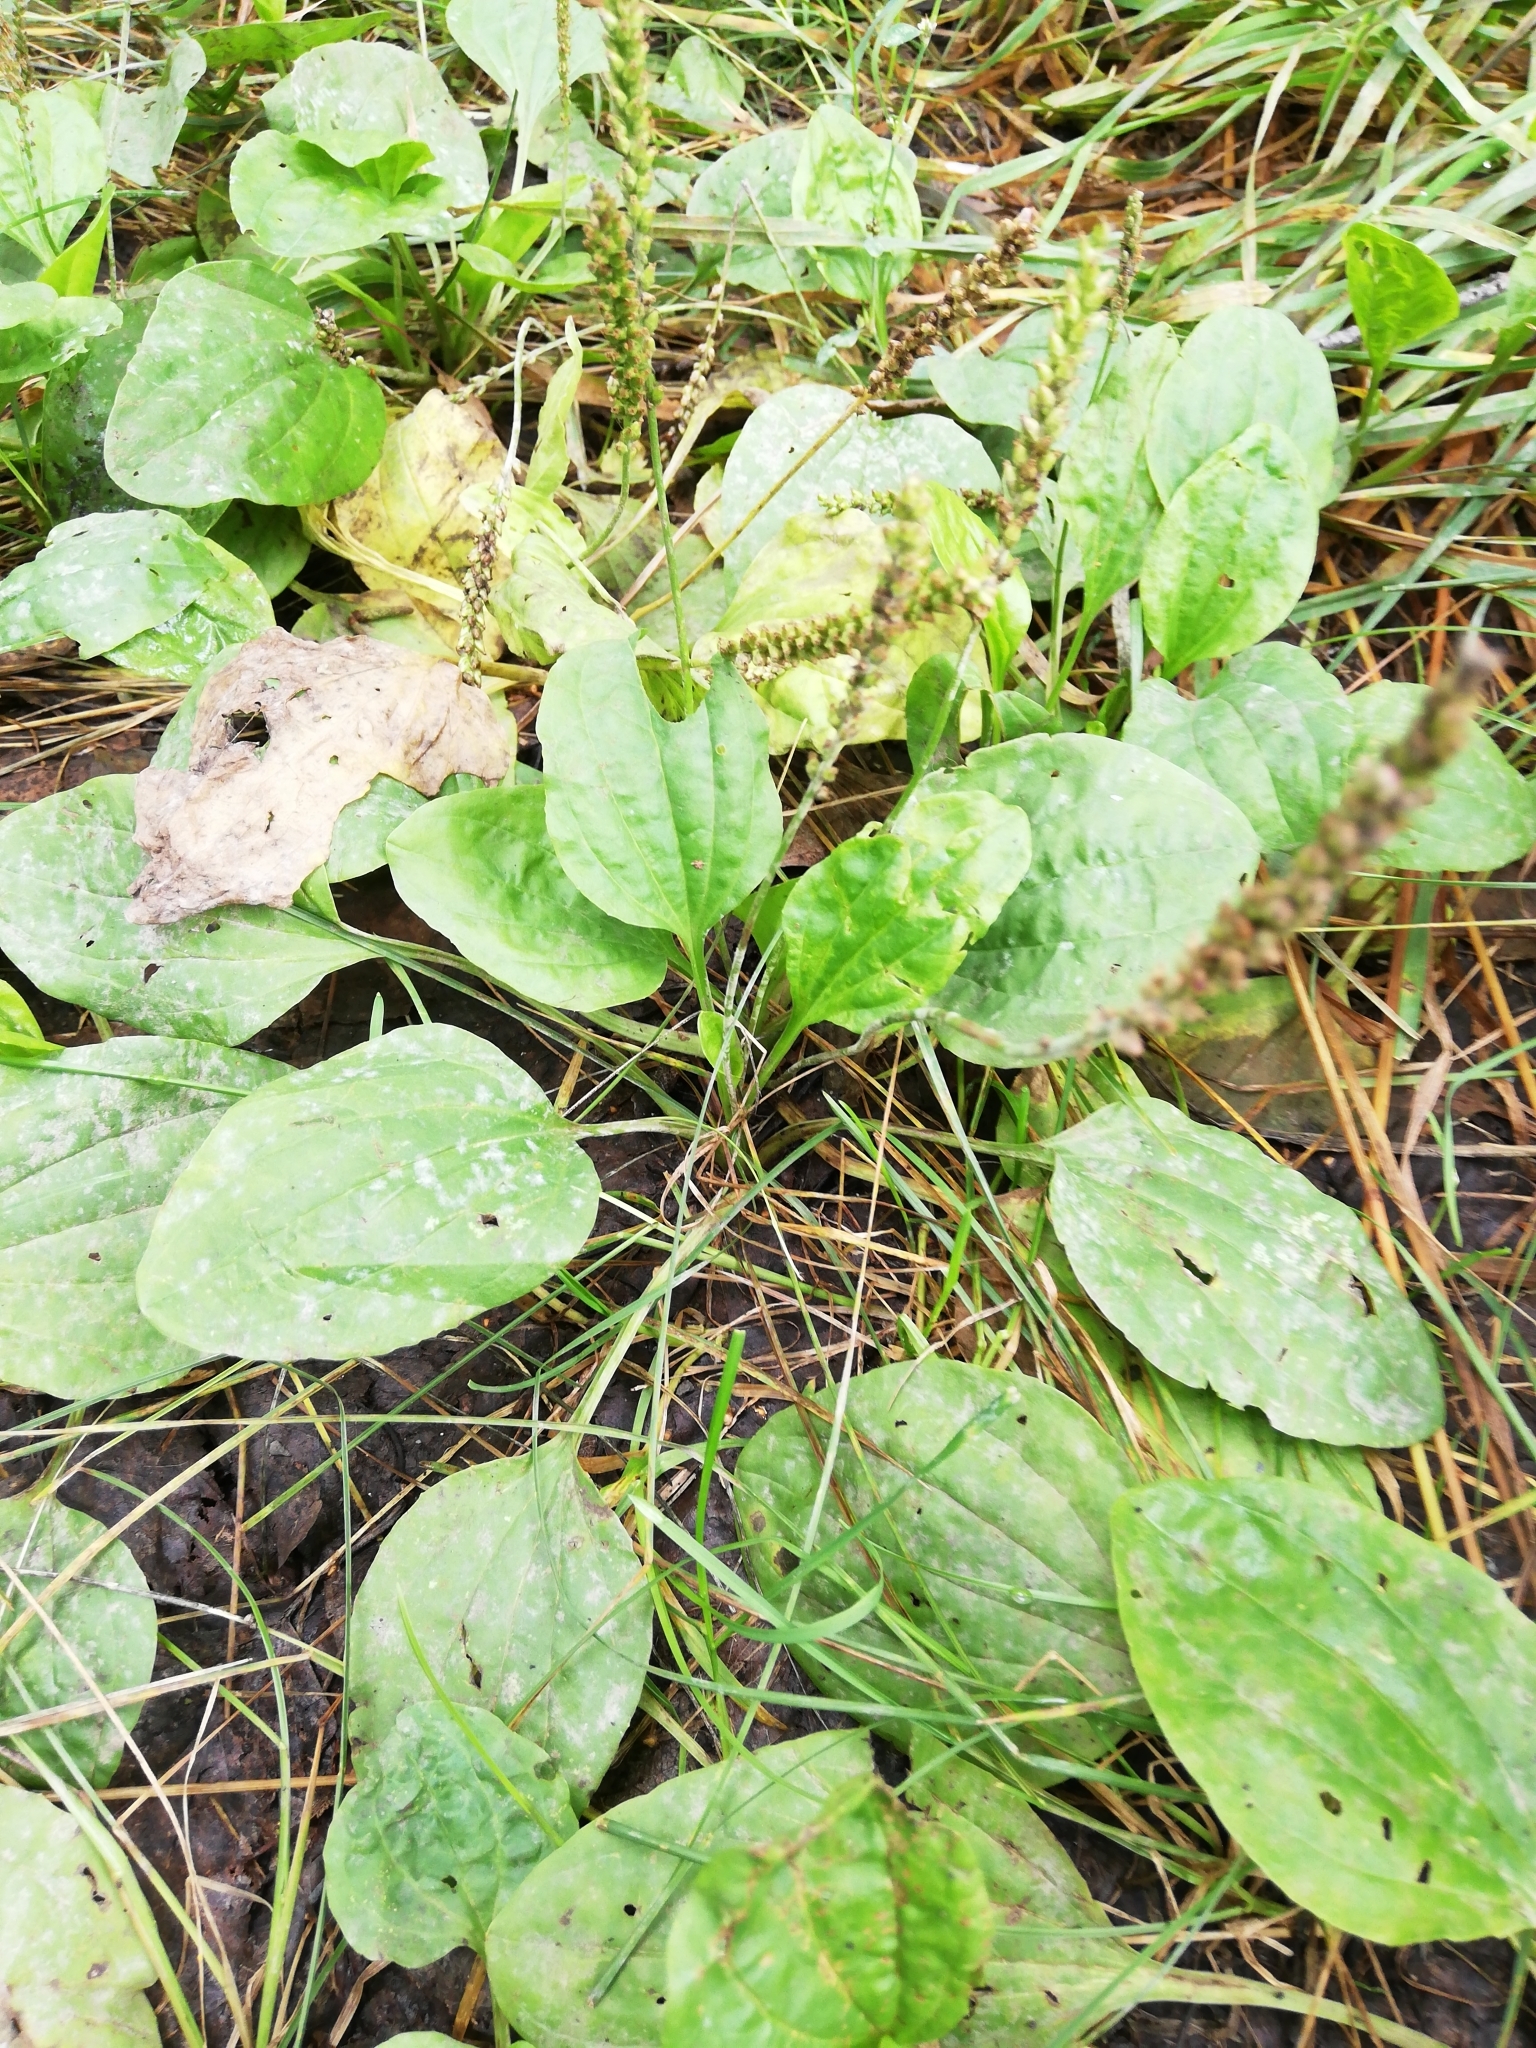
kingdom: Plantae
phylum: Tracheophyta
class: Magnoliopsida
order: Lamiales
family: Plantaginaceae
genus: Plantago
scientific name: Plantago major
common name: Common plantain
